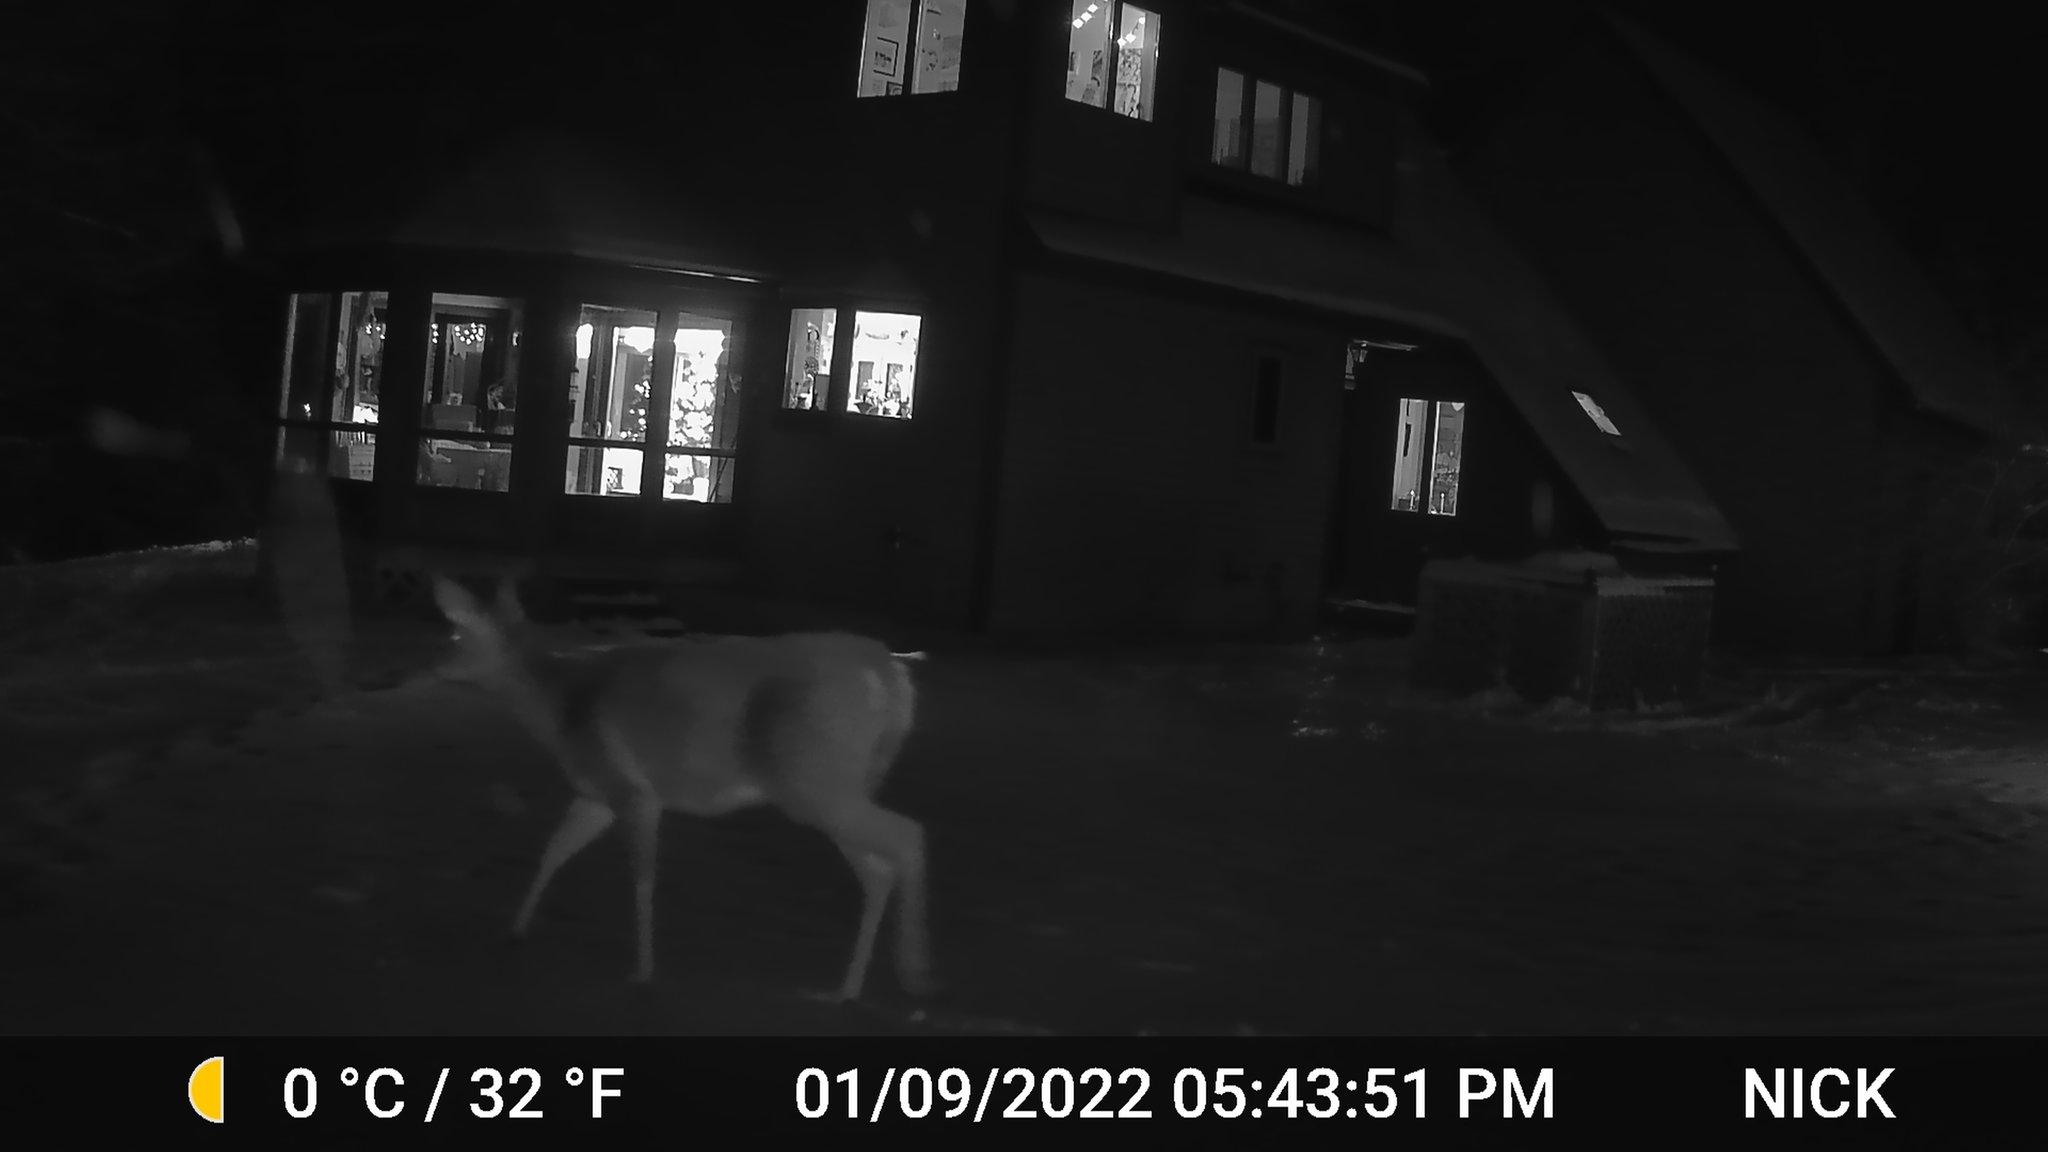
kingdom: Animalia
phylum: Chordata
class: Mammalia
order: Artiodactyla
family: Cervidae
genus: Odocoileus
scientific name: Odocoileus virginianus
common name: White-tailed deer
